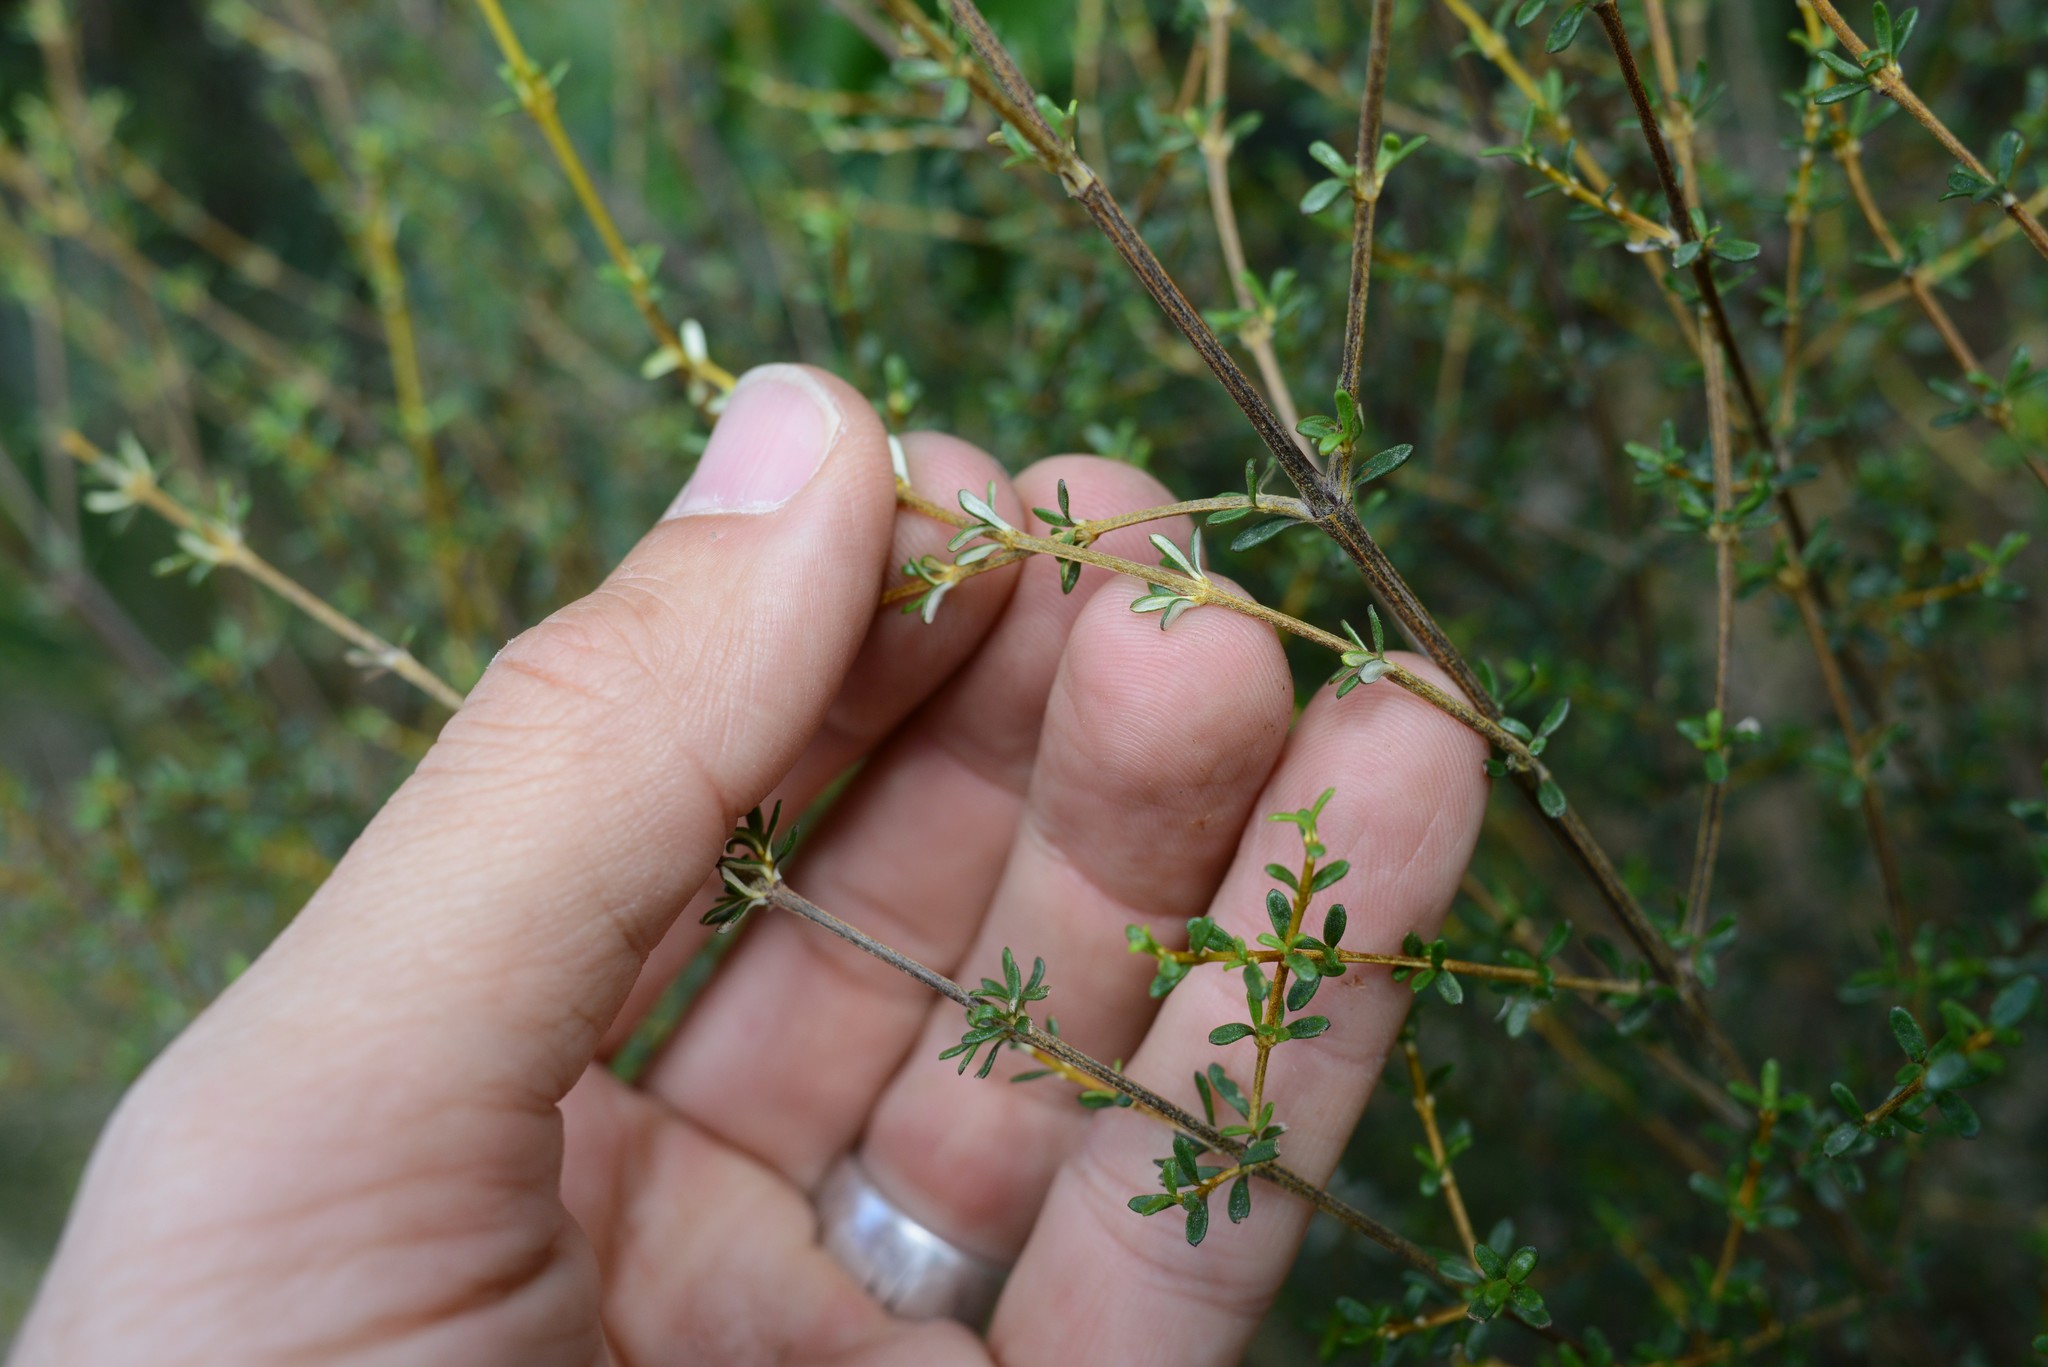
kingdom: Plantae
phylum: Tracheophyta
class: Magnoliopsida
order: Asterales
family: Asteraceae
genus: Olearia
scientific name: Olearia solandri
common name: Coastal daisybush
